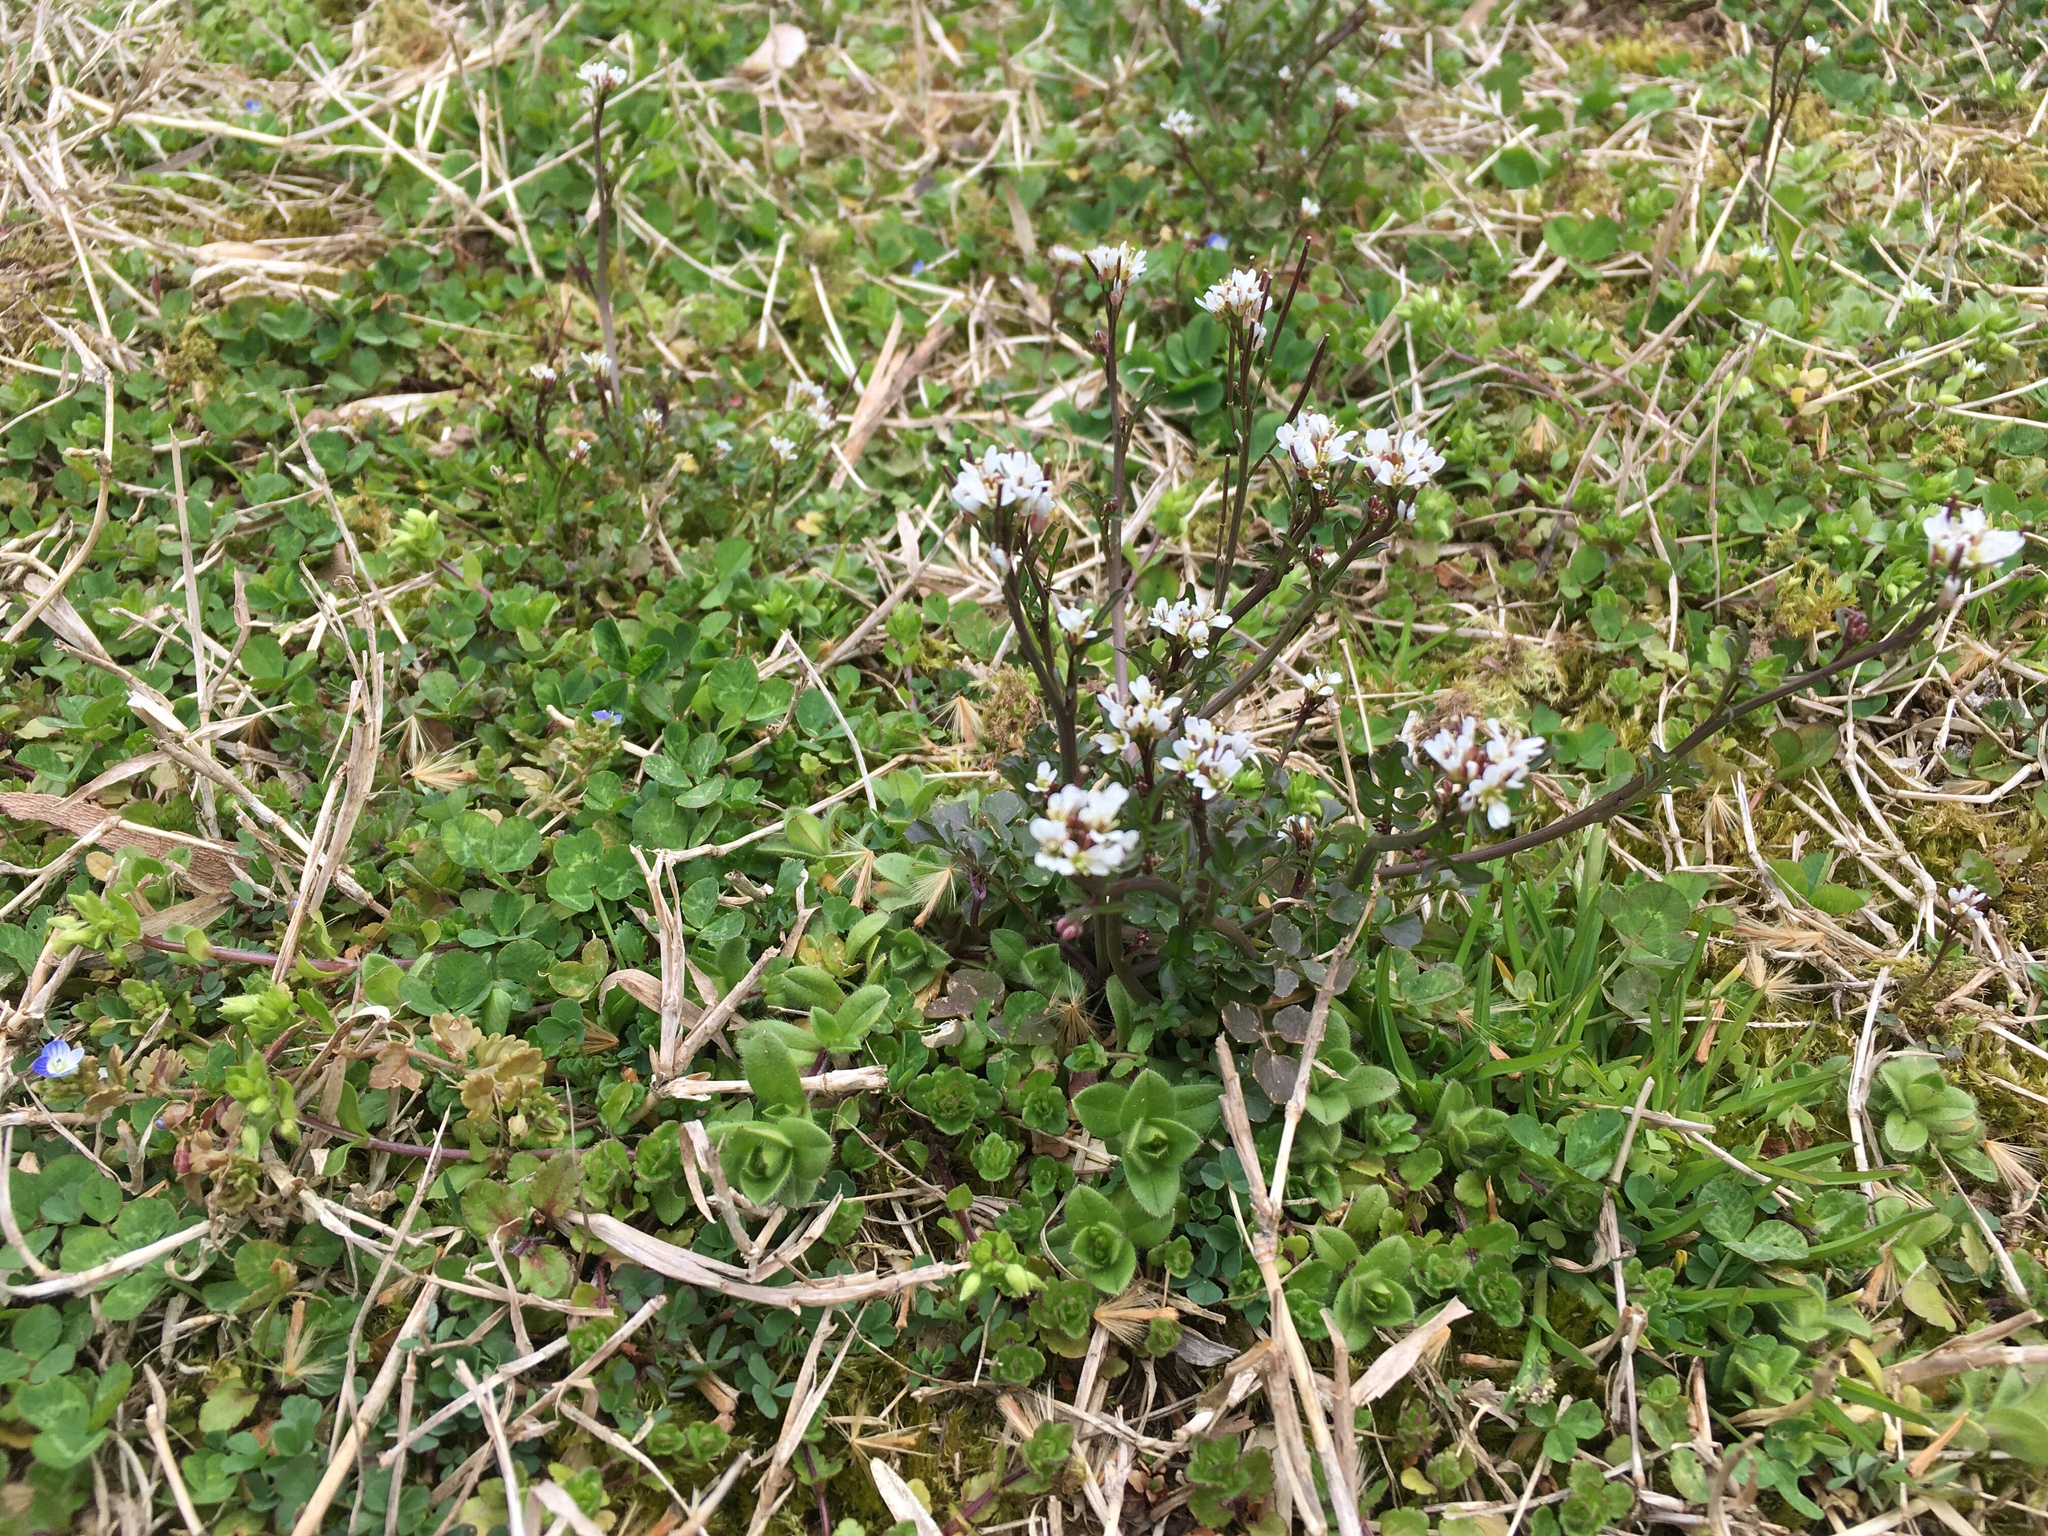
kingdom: Plantae
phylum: Tracheophyta
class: Magnoliopsida
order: Brassicales
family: Brassicaceae
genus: Cardamine
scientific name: Cardamine hirsuta
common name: Hairy bittercress
